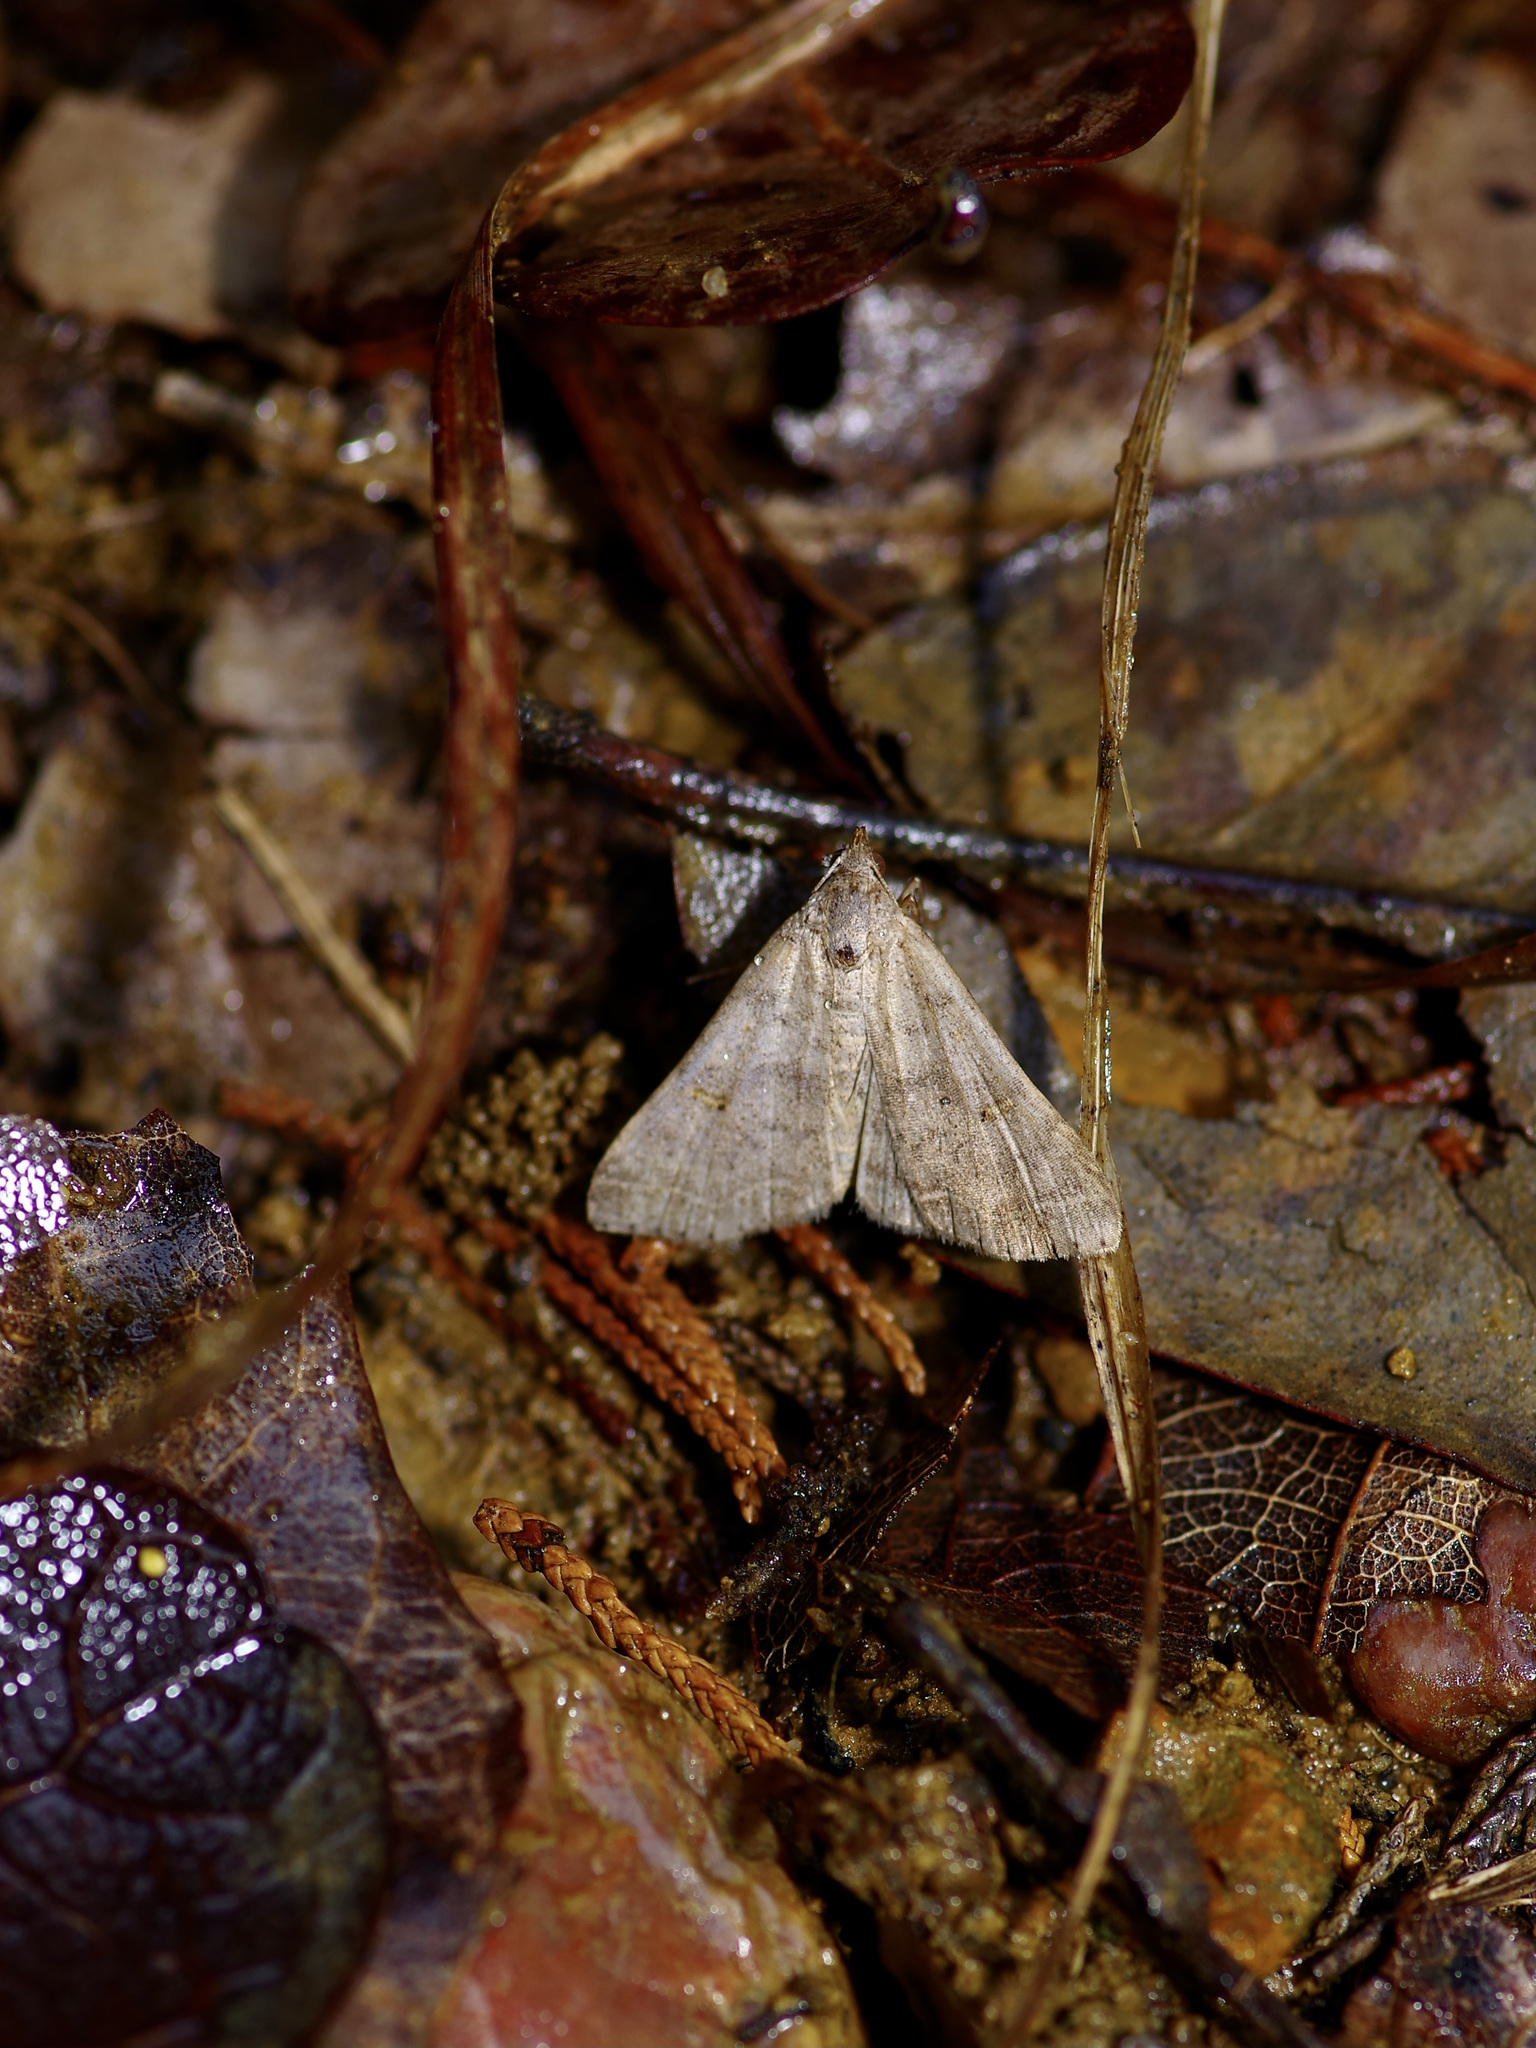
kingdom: Animalia
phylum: Arthropoda
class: Insecta
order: Lepidoptera
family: Erebidae
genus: Bleptina
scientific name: Bleptina caradrinalis
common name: Bent-winged owlet
